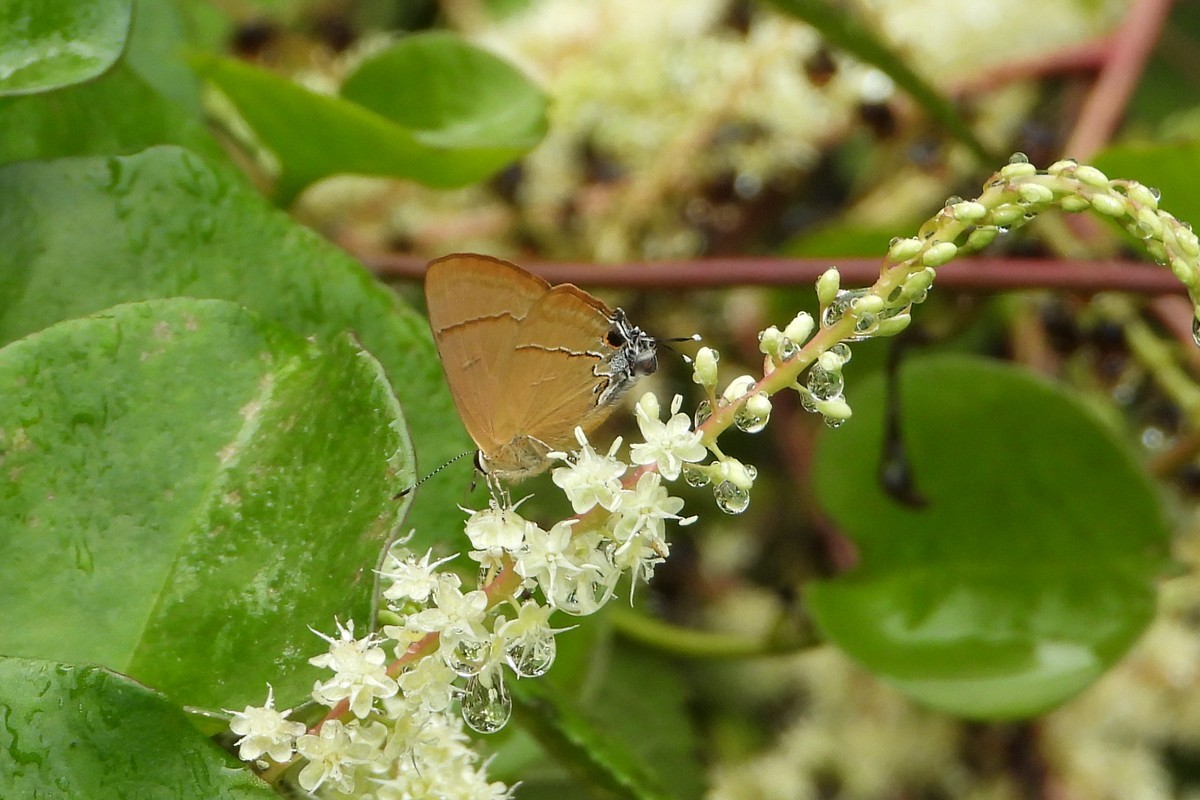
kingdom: Animalia
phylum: Arthropoda
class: Insecta
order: Lepidoptera
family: Lycaenidae
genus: Rapala
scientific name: Rapala nissa
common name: Common flash
